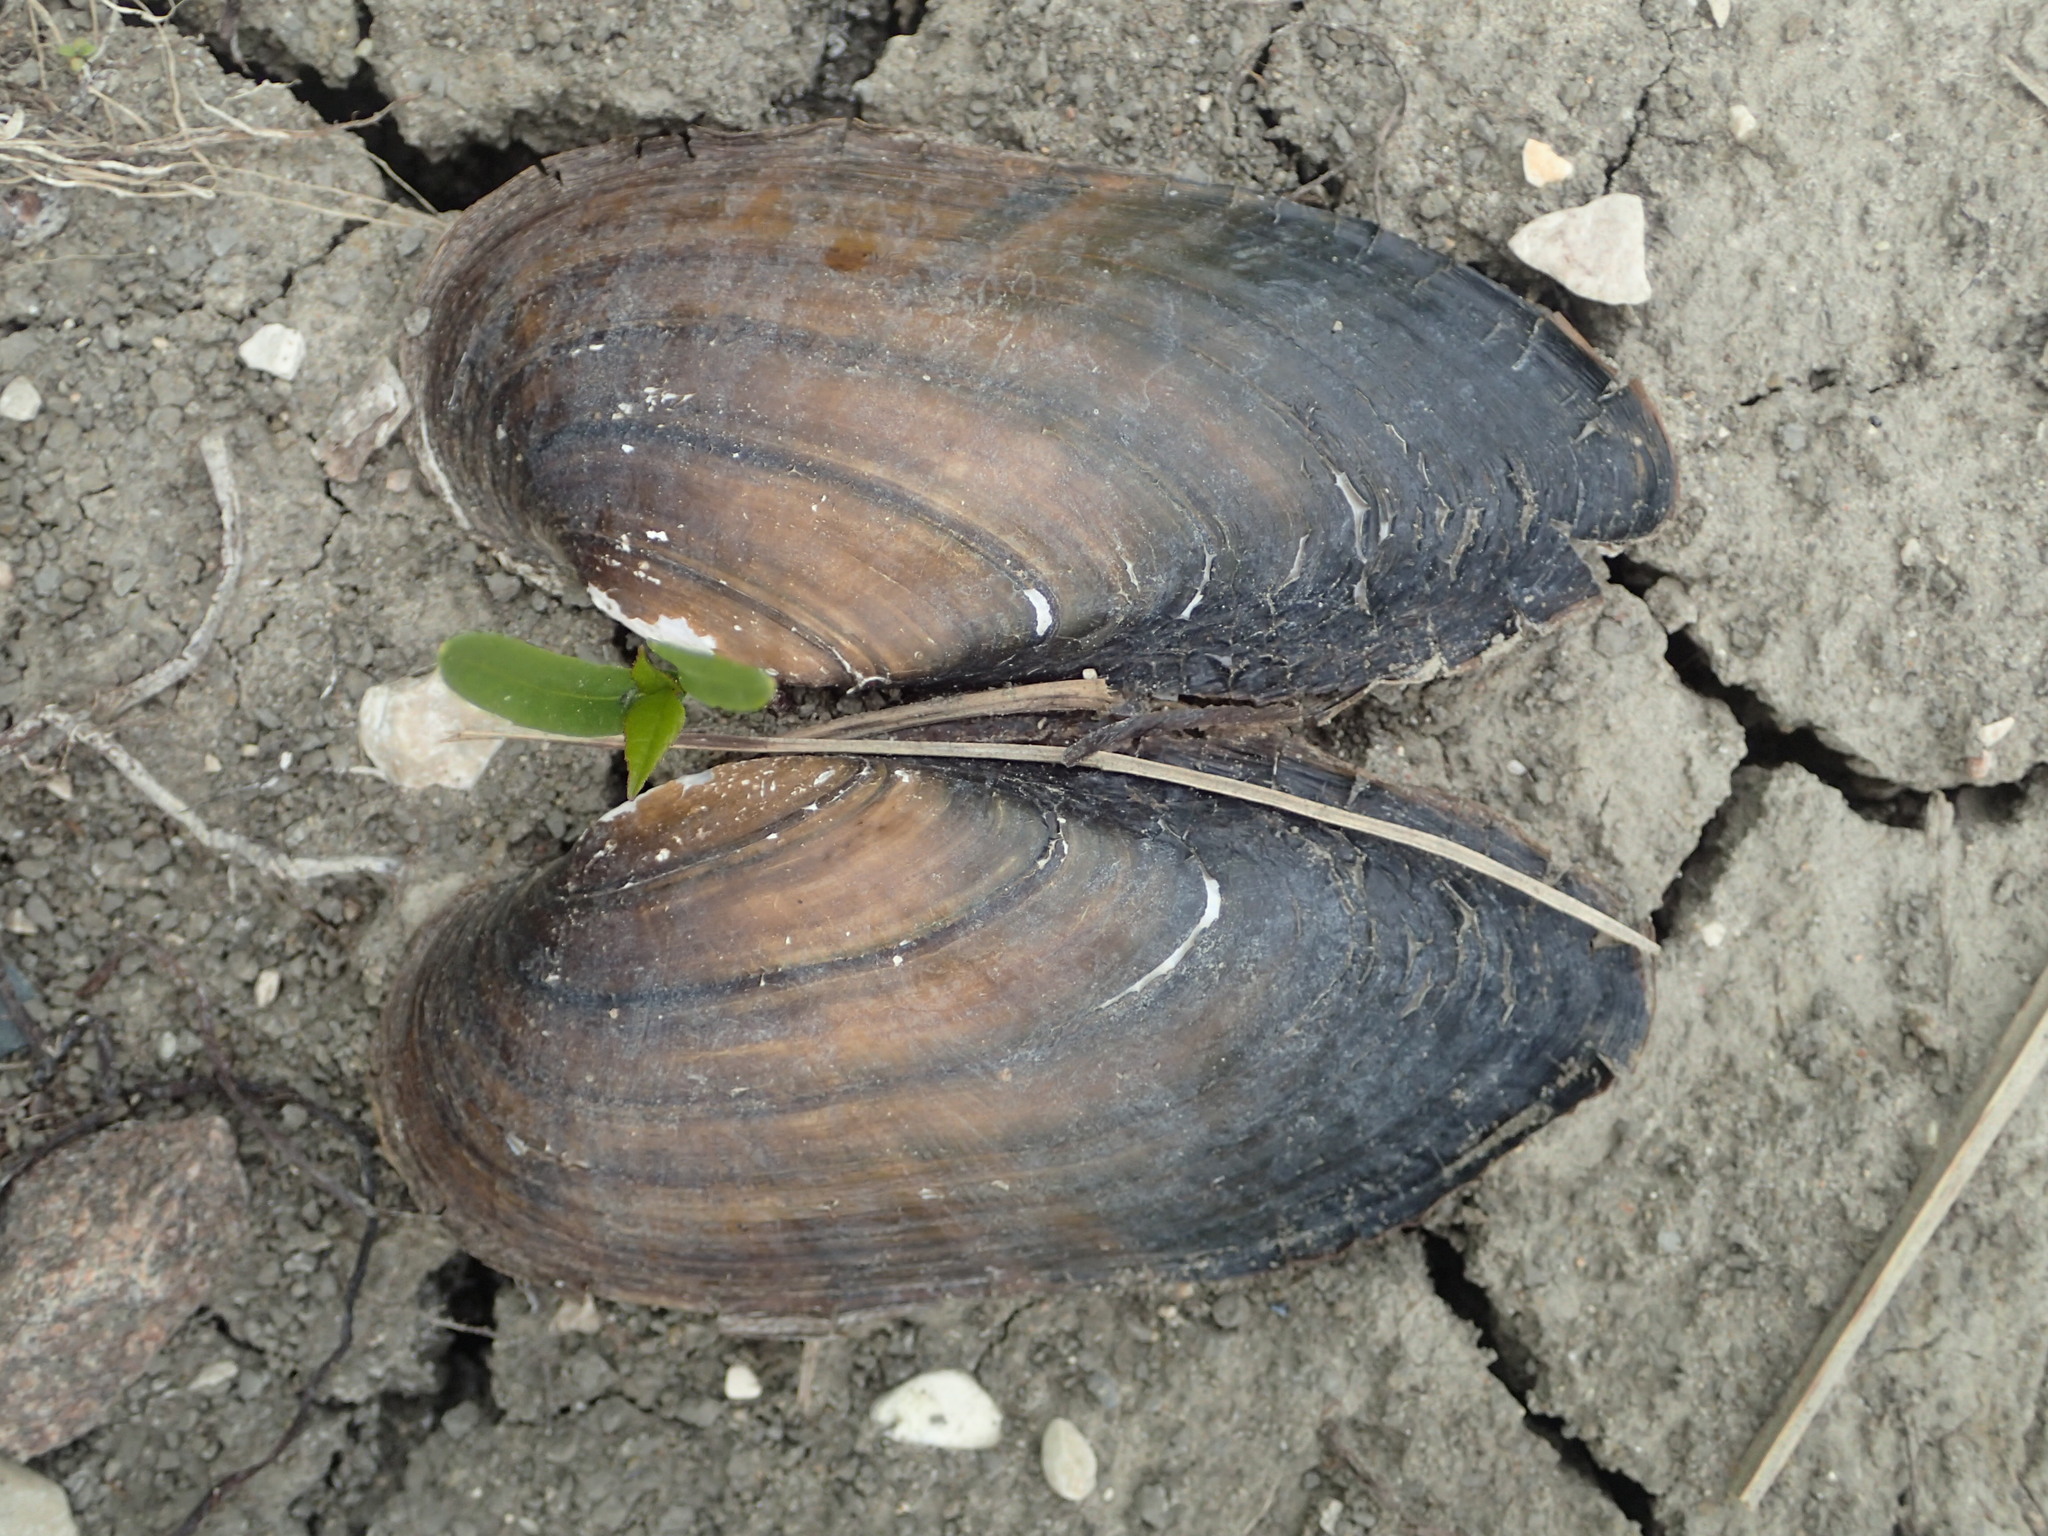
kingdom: Animalia
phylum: Mollusca
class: Bivalvia
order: Unionida
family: Unionidae
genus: Ligumia
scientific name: Ligumia recta
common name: Black sandshell
